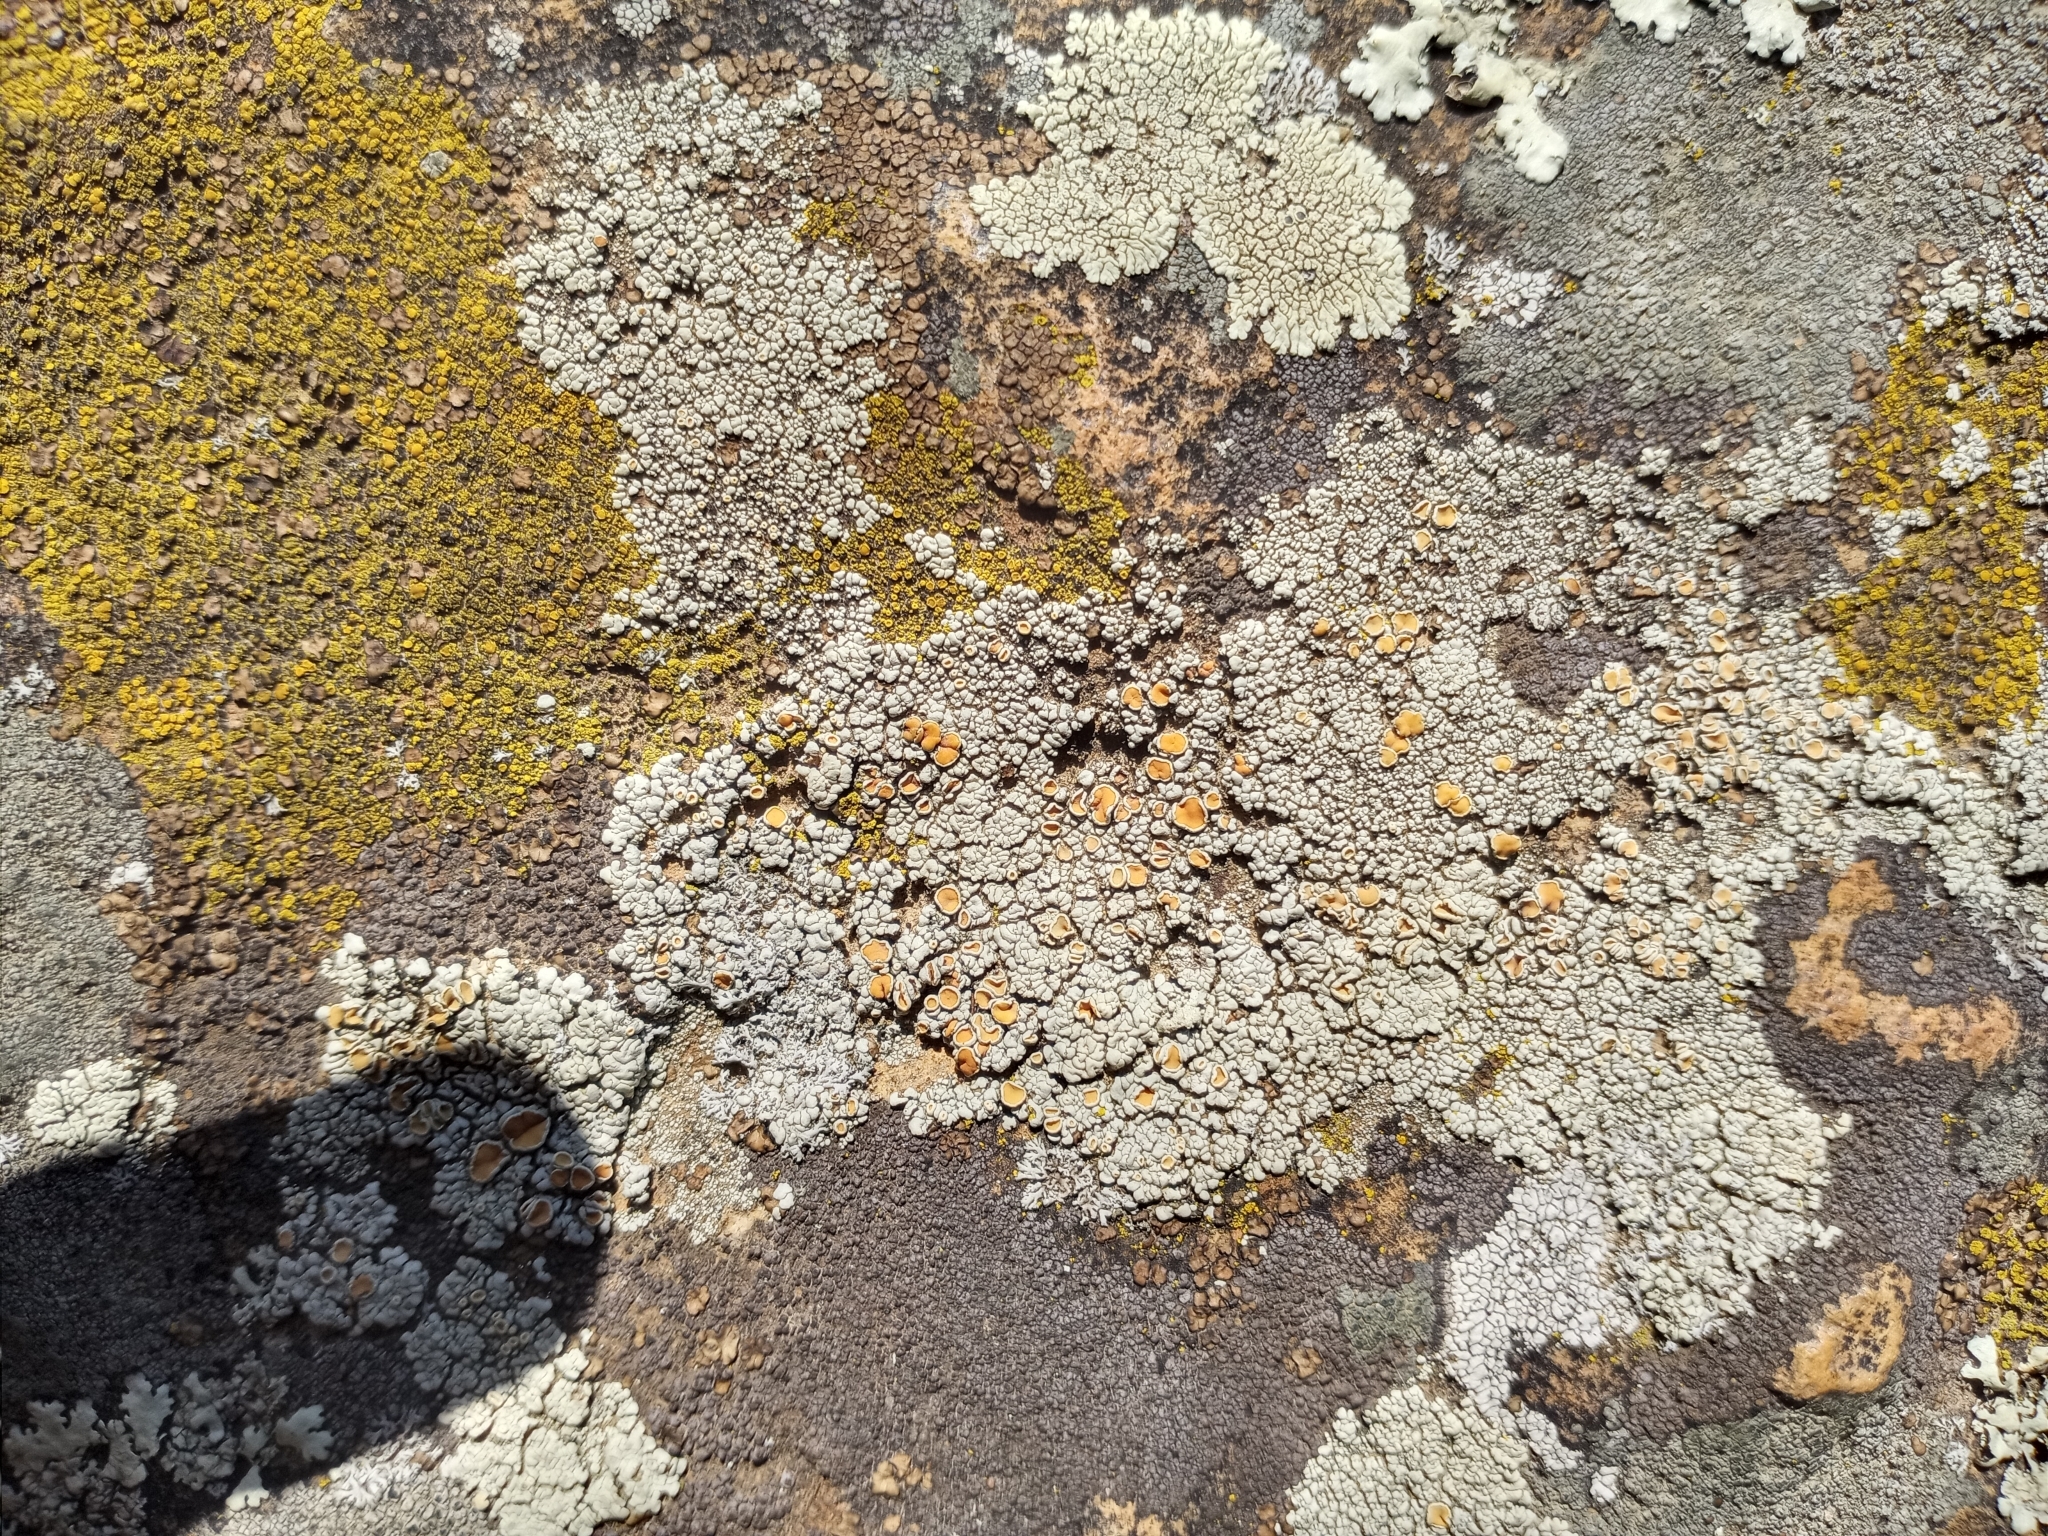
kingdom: Fungi
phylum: Ascomycota
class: Lecanoromycetes
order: Lecanorales
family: Lecanoraceae
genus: Sedelnikovaea
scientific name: Sedelnikovaea subdiscrepans
